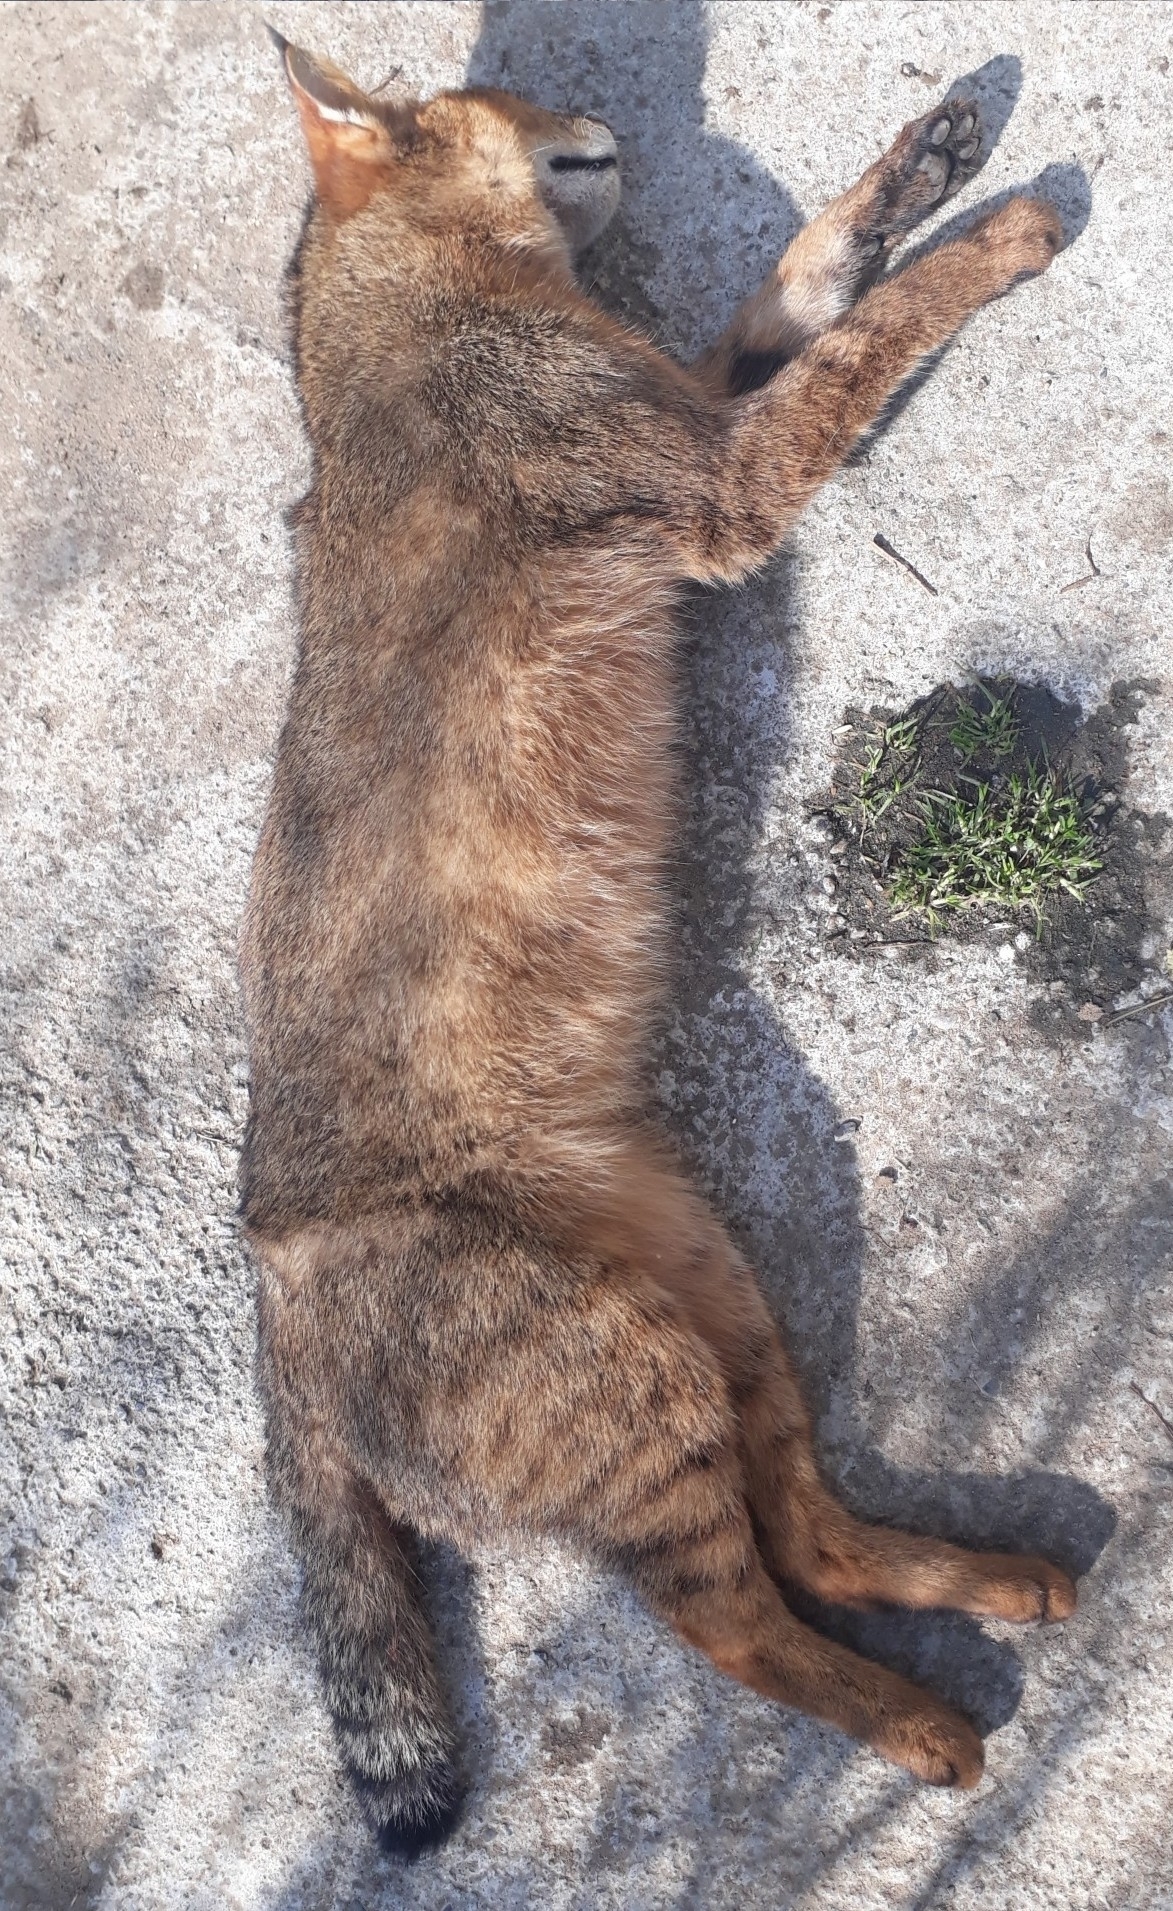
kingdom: Animalia
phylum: Chordata
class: Mammalia
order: Carnivora
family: Felidae
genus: Felis
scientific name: Felis chaus
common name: Jungle cat
